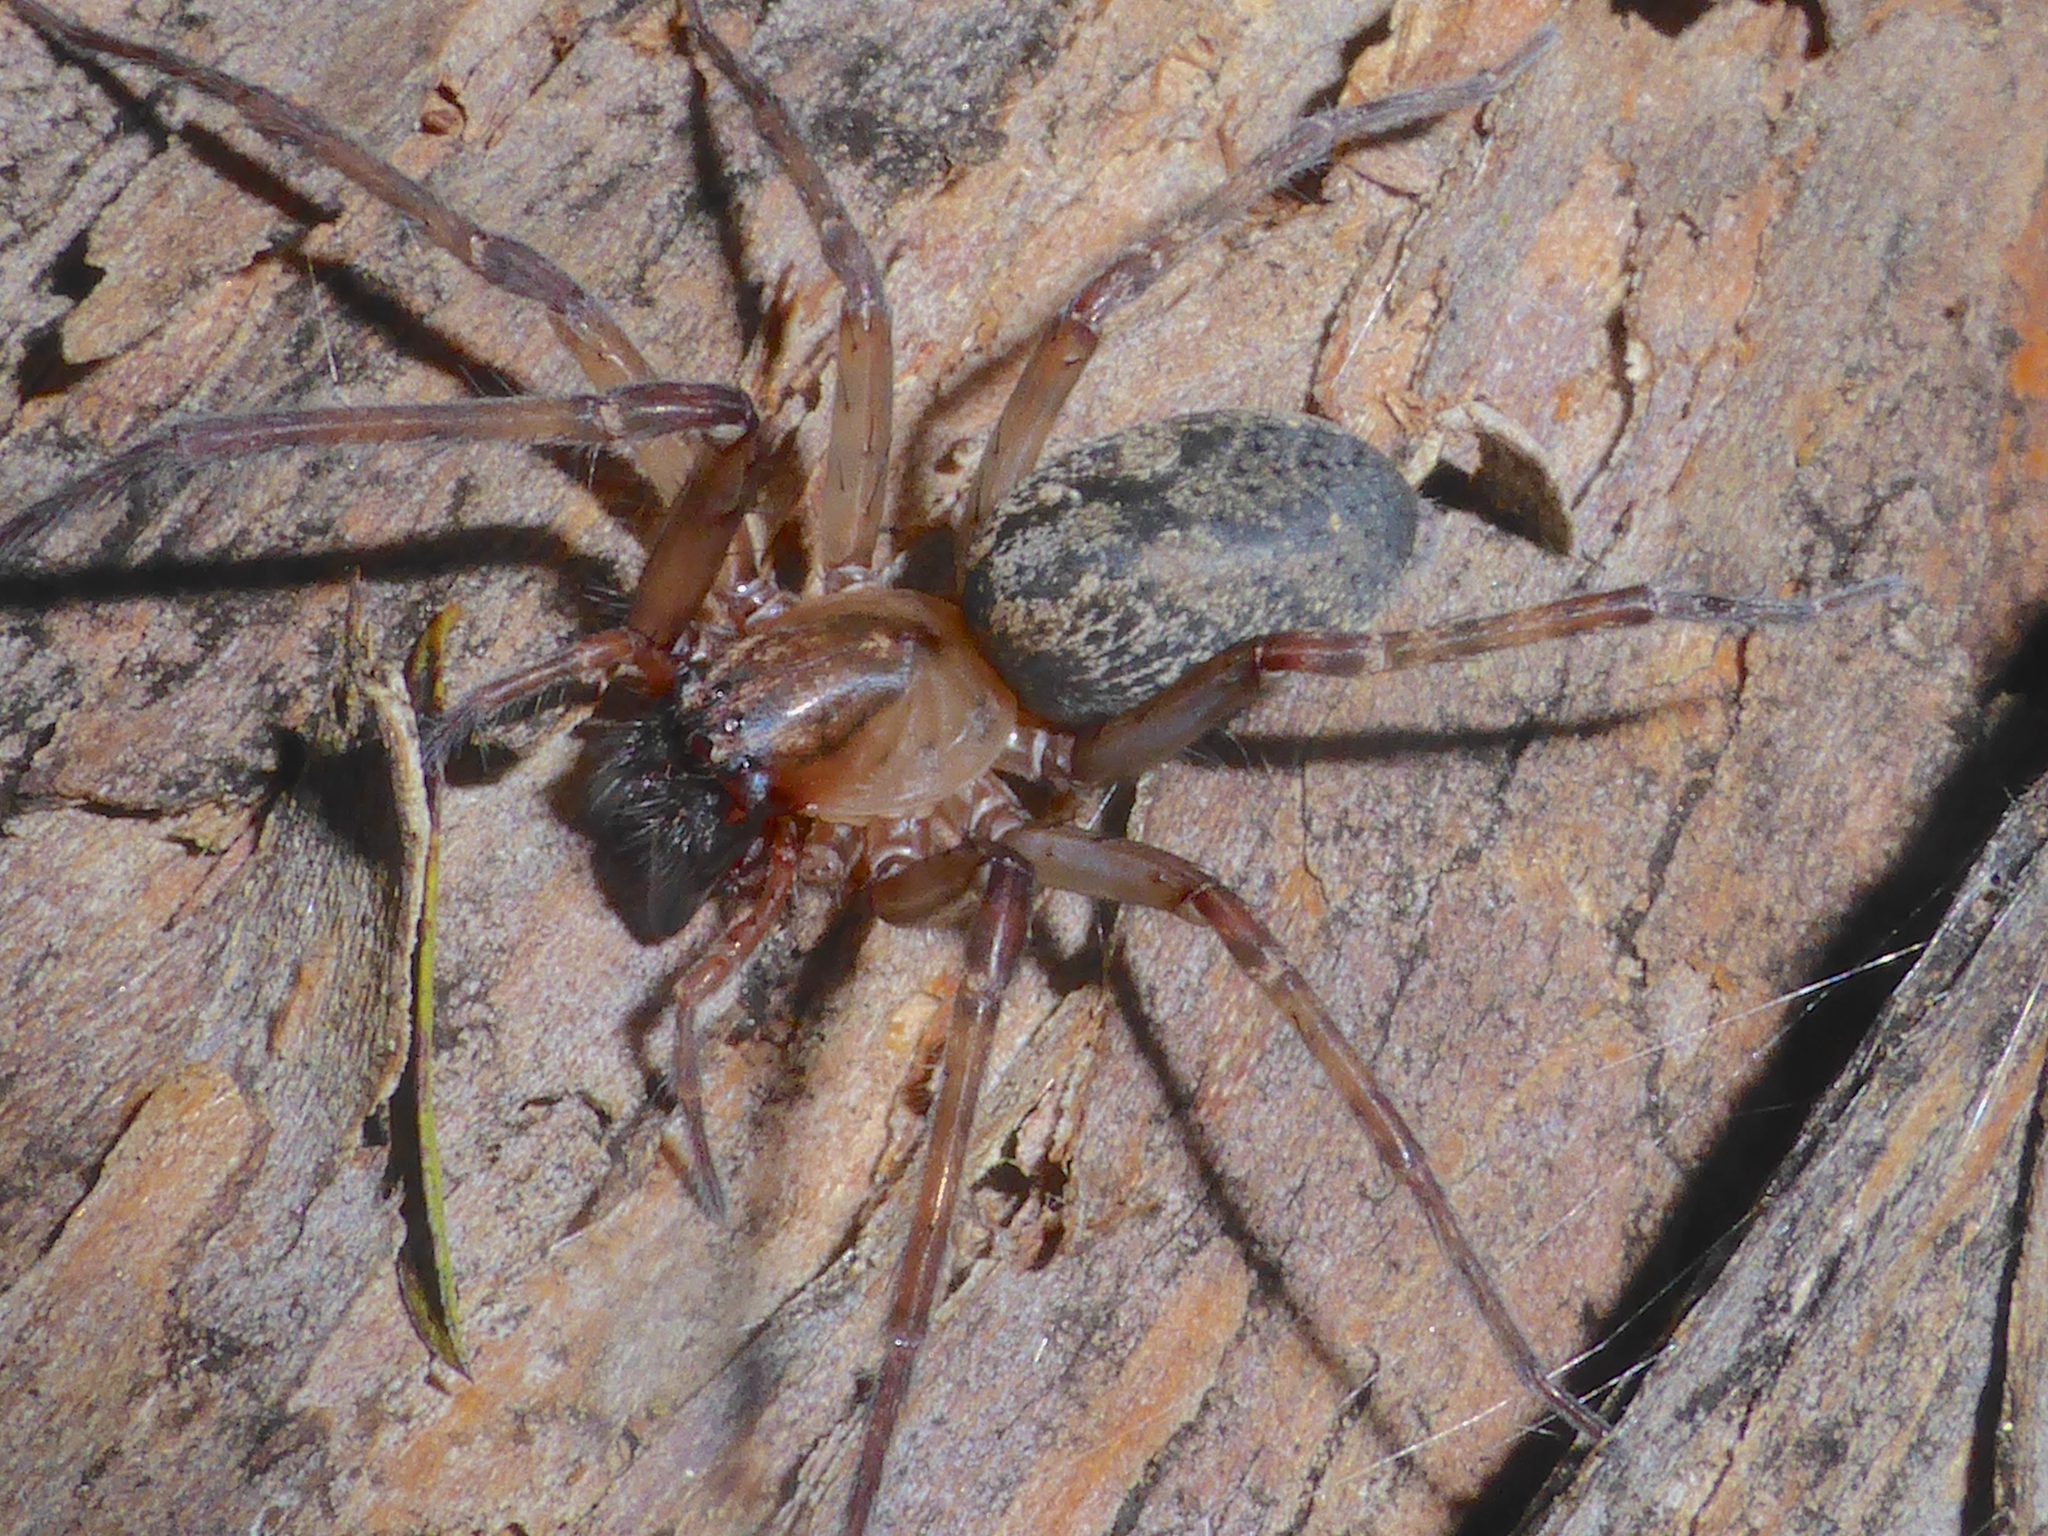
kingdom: Animalia
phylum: Arthropoda
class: Arachnida
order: Araneae
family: Desidae
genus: Nuisiana
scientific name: Nuisiana arboris
